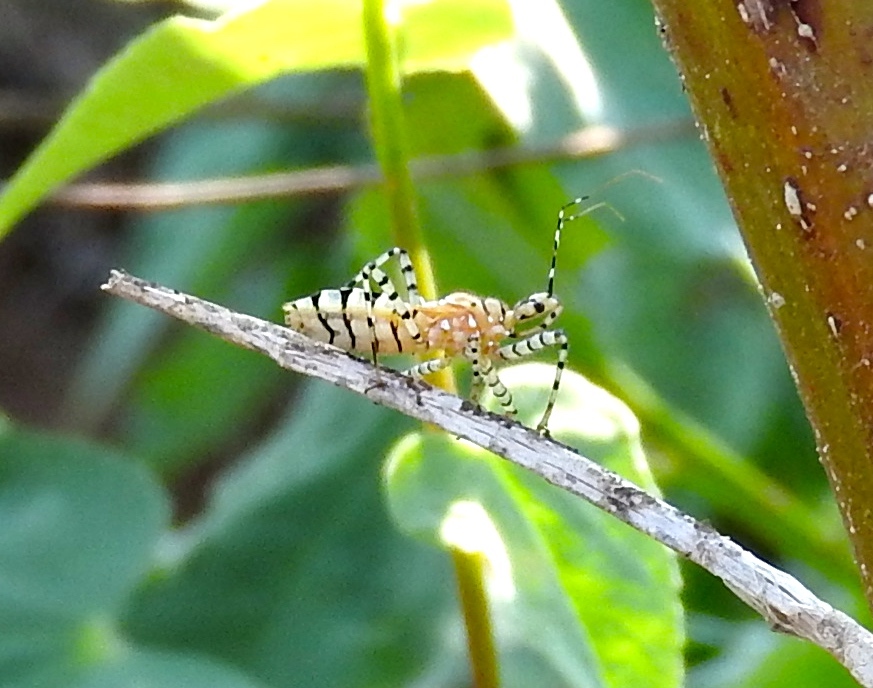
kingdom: Animalia
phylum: Arthropoda
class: Insecta
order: Hemiptera
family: Reduviidae
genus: Pselliopus
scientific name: Pselliopus
